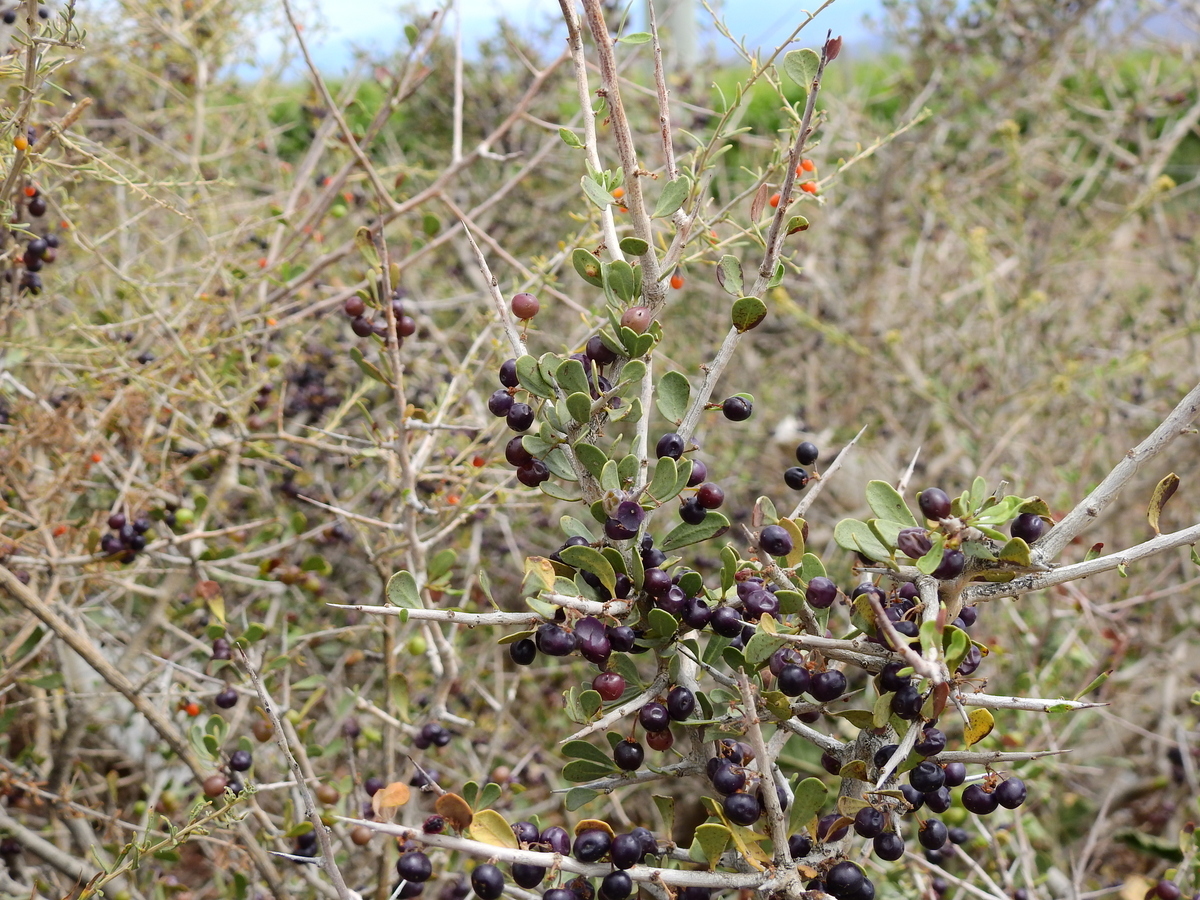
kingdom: Plantae
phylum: Tracheophyta
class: Magnoliopsida
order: Sapindales
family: Anacardiaceae
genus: Schinus
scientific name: Schinus johnstonii
